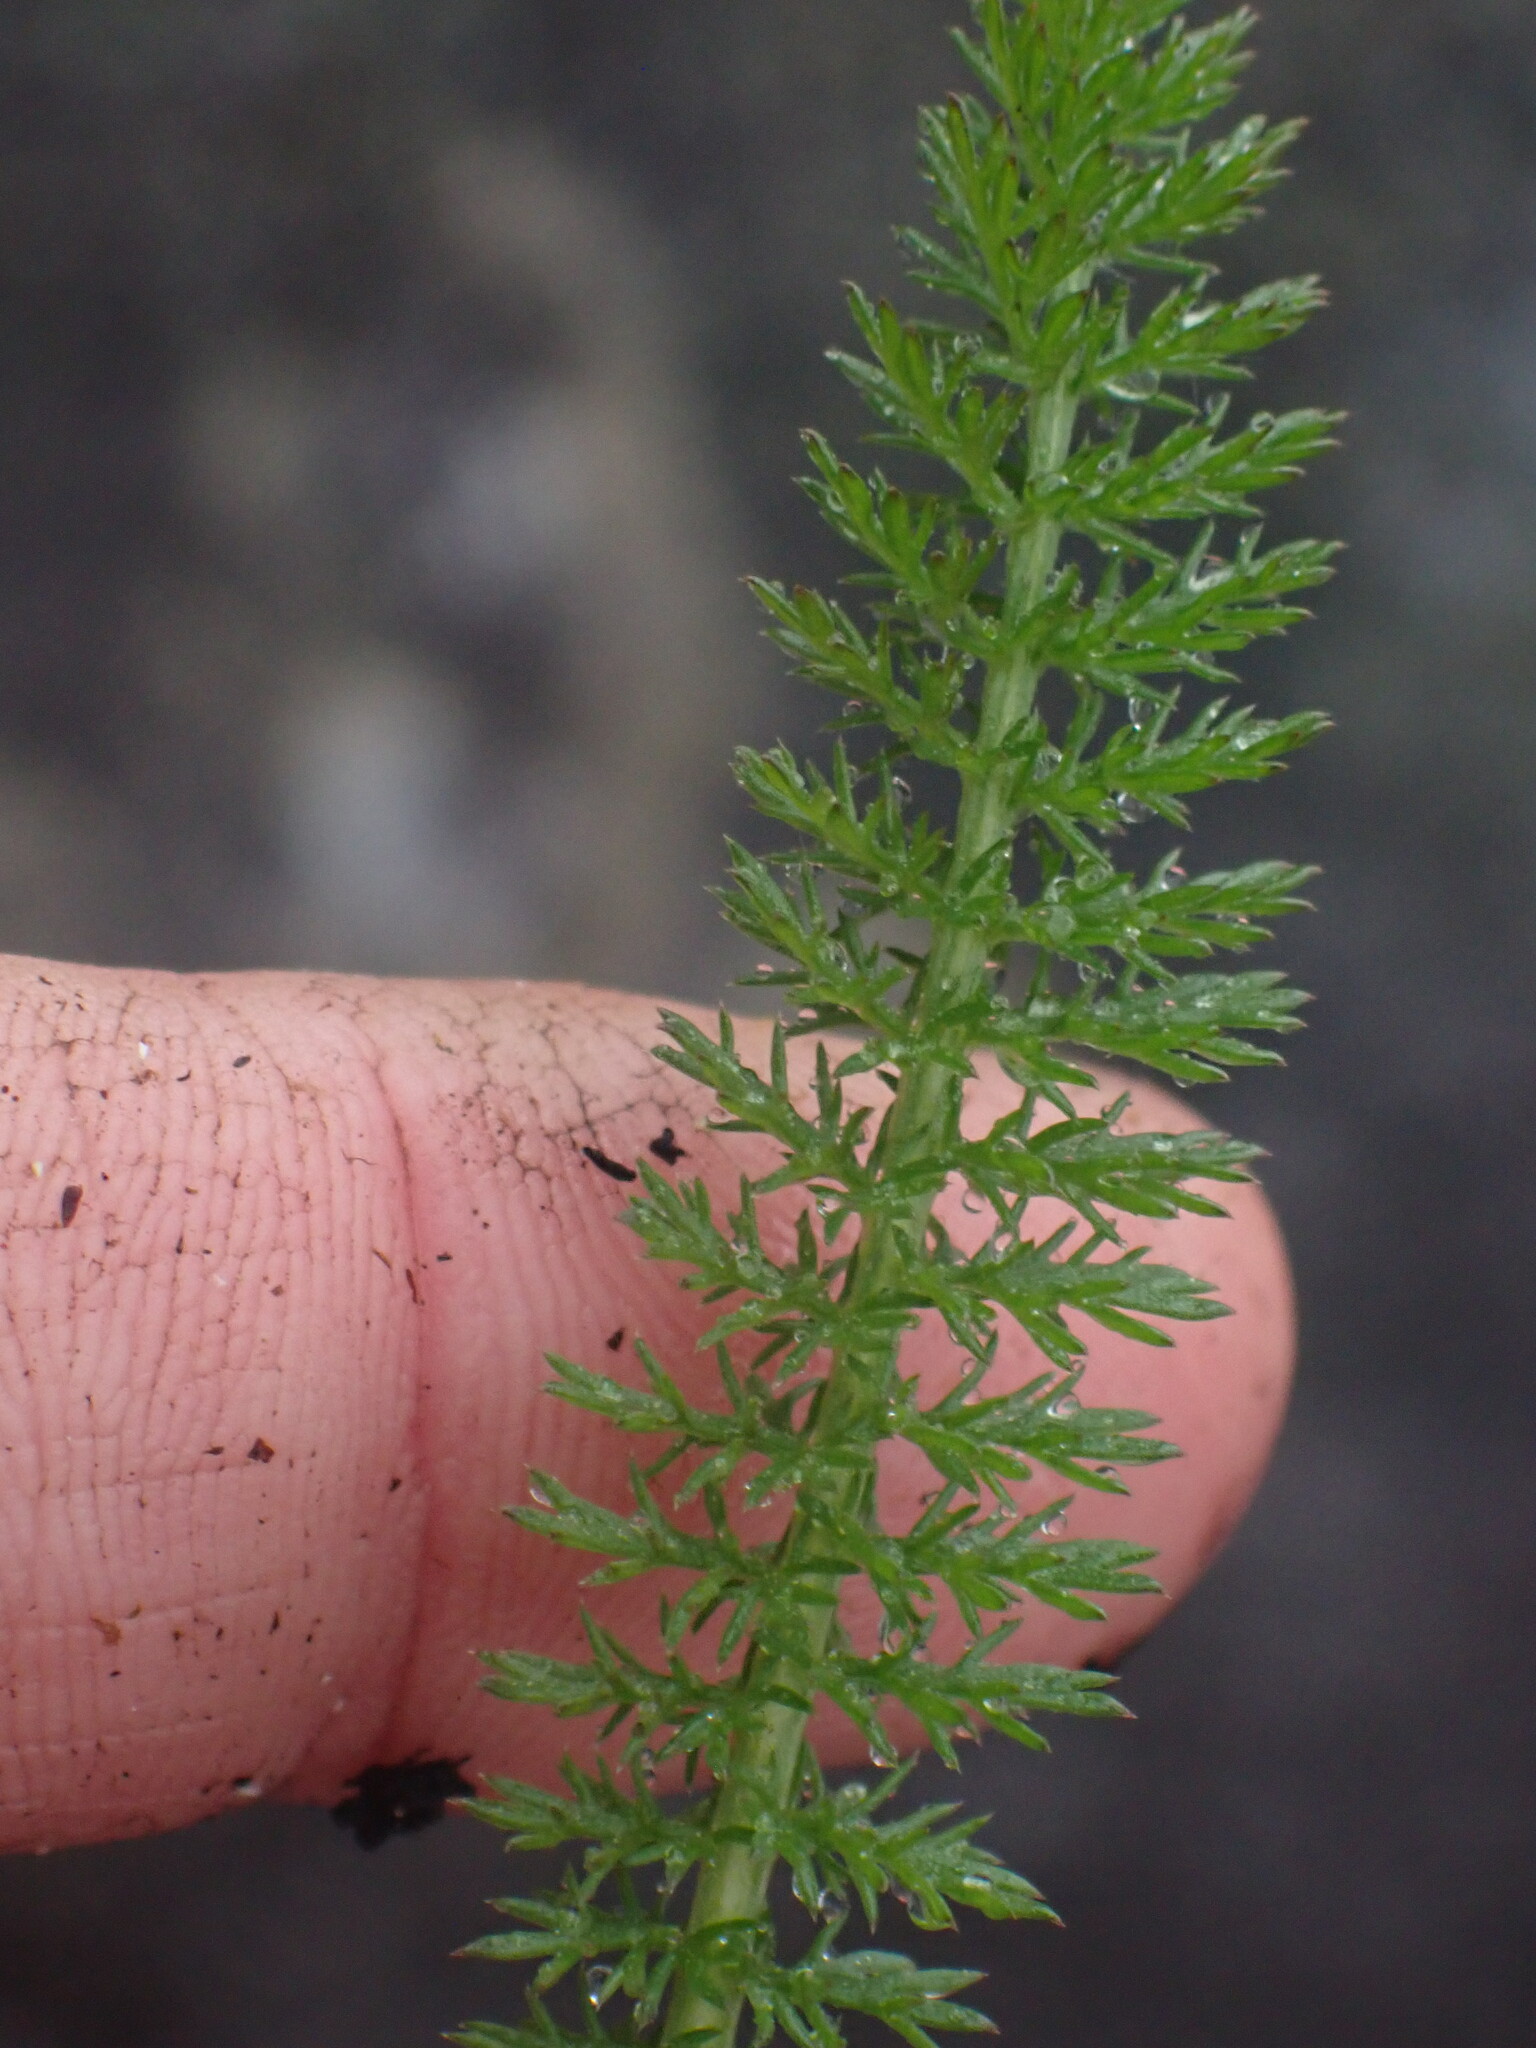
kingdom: Plantae
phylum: Tracheophyta
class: Magnoliopsida
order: Asterales
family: Asteraceae
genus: Achillea
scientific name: Achillea millefolium
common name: Yarrow
